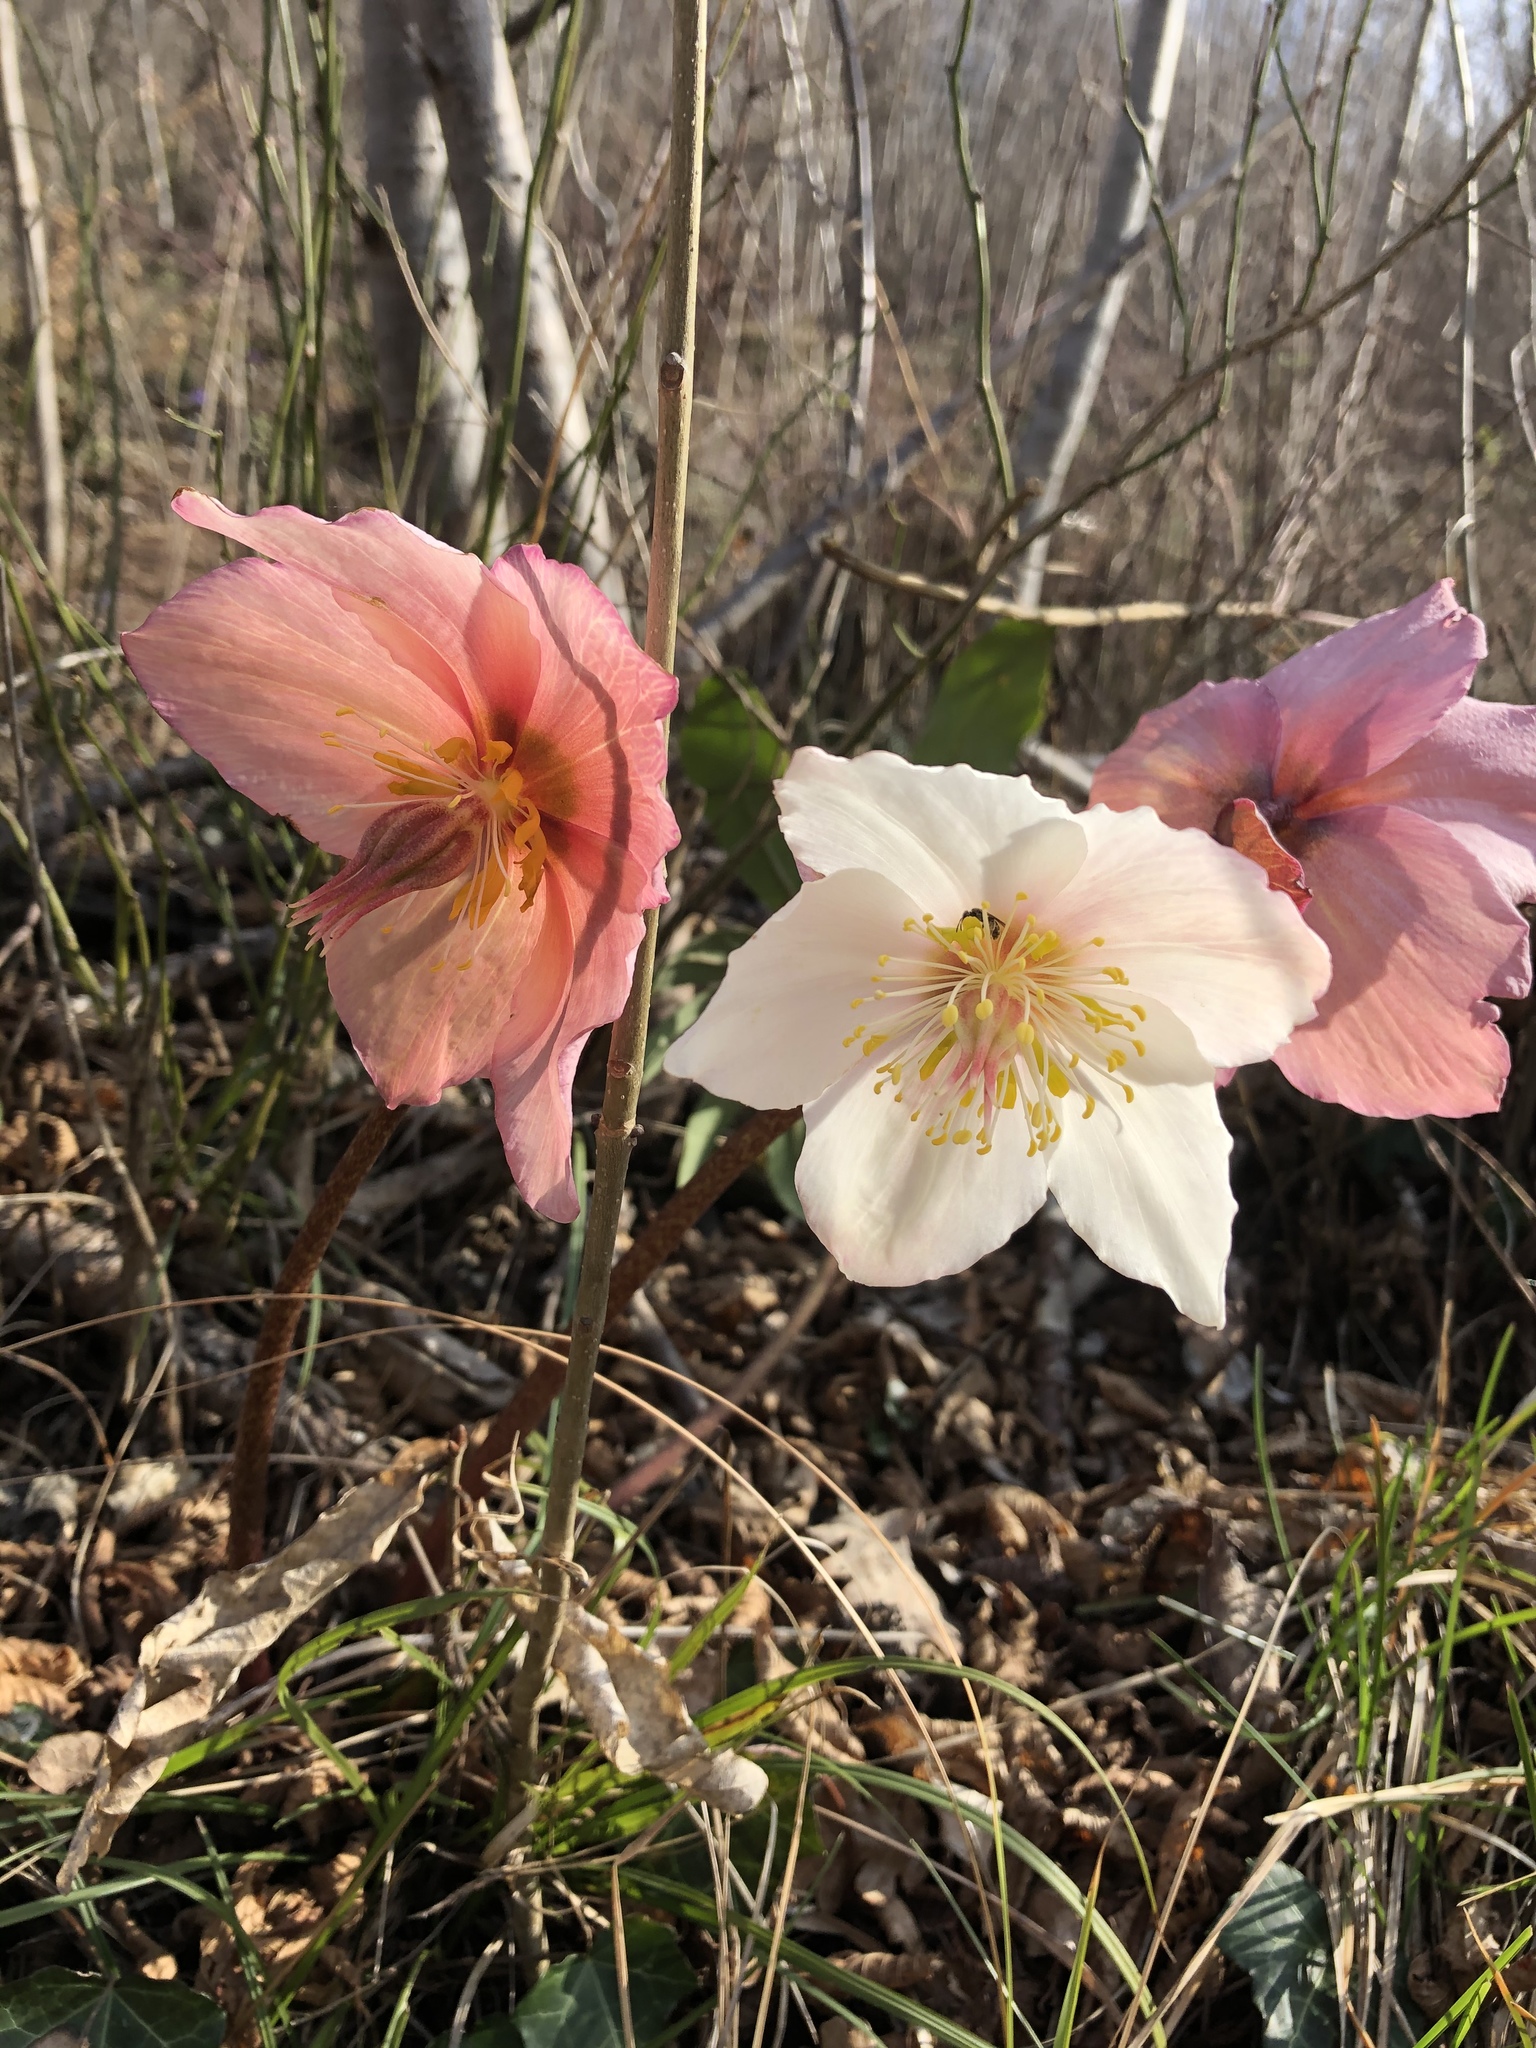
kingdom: Plantae
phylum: Tracheophyta
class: Magnoliopsida
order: Ranunculales
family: Ranunculaceae
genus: Helleborus
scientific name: Helleborus niger
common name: Black hellebore
